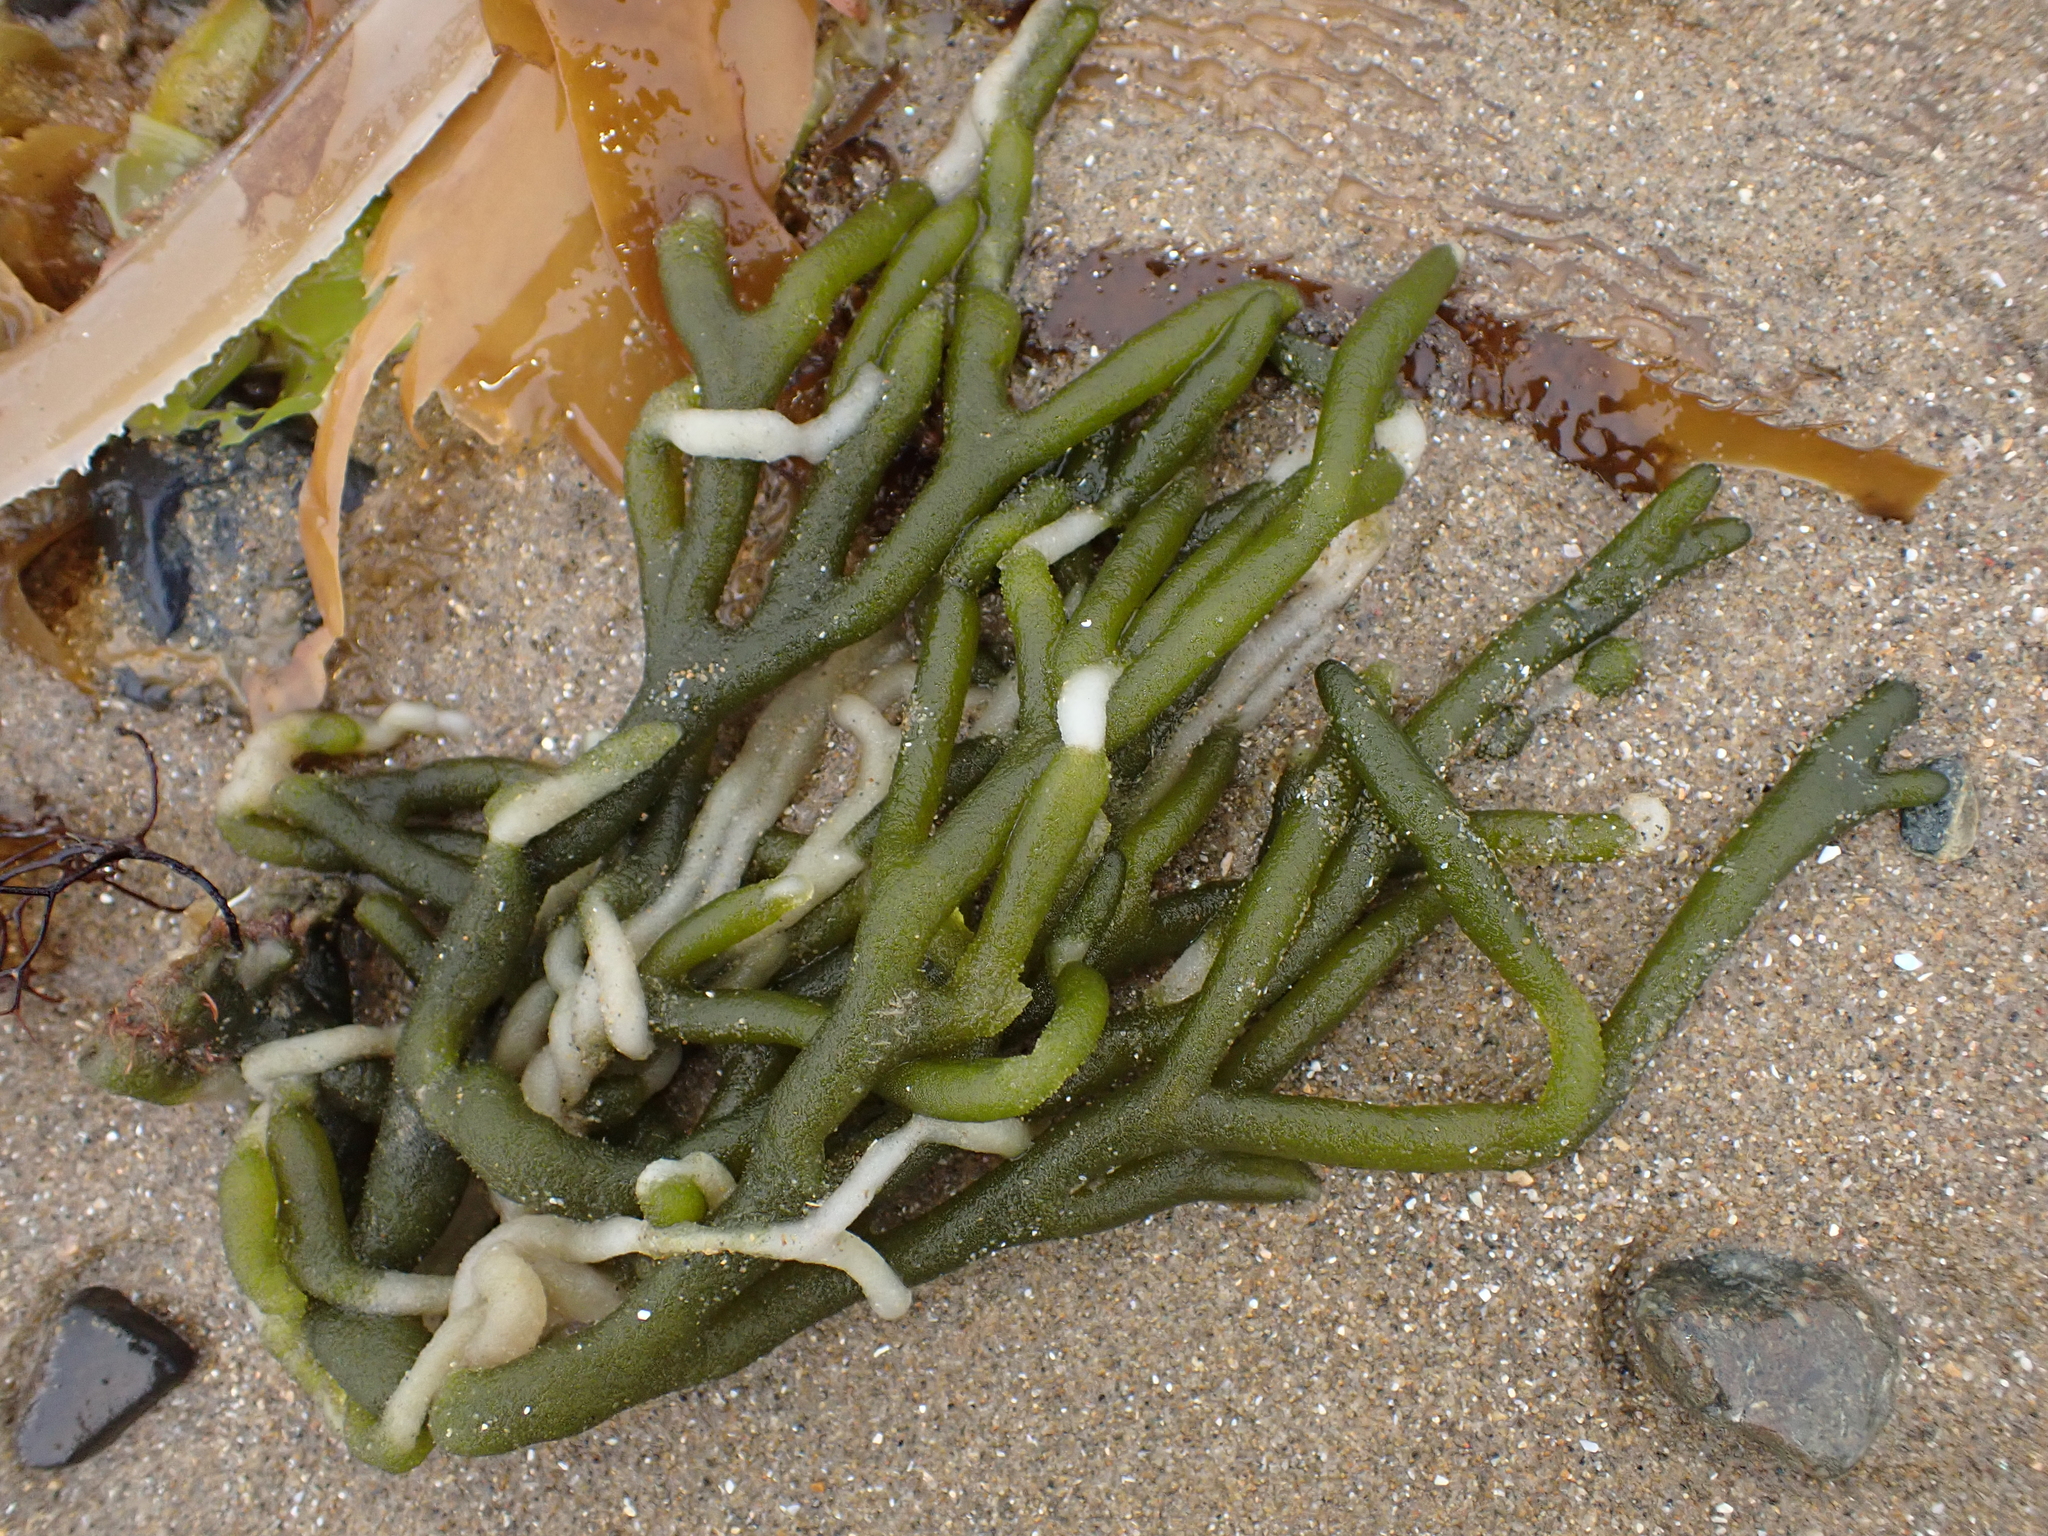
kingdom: Plantae
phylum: Chlorophyta
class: Ulvophyceae
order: Bryopsidales
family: Codiaceae
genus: Codium
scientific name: Codium fragile
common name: Dead man's fingers
